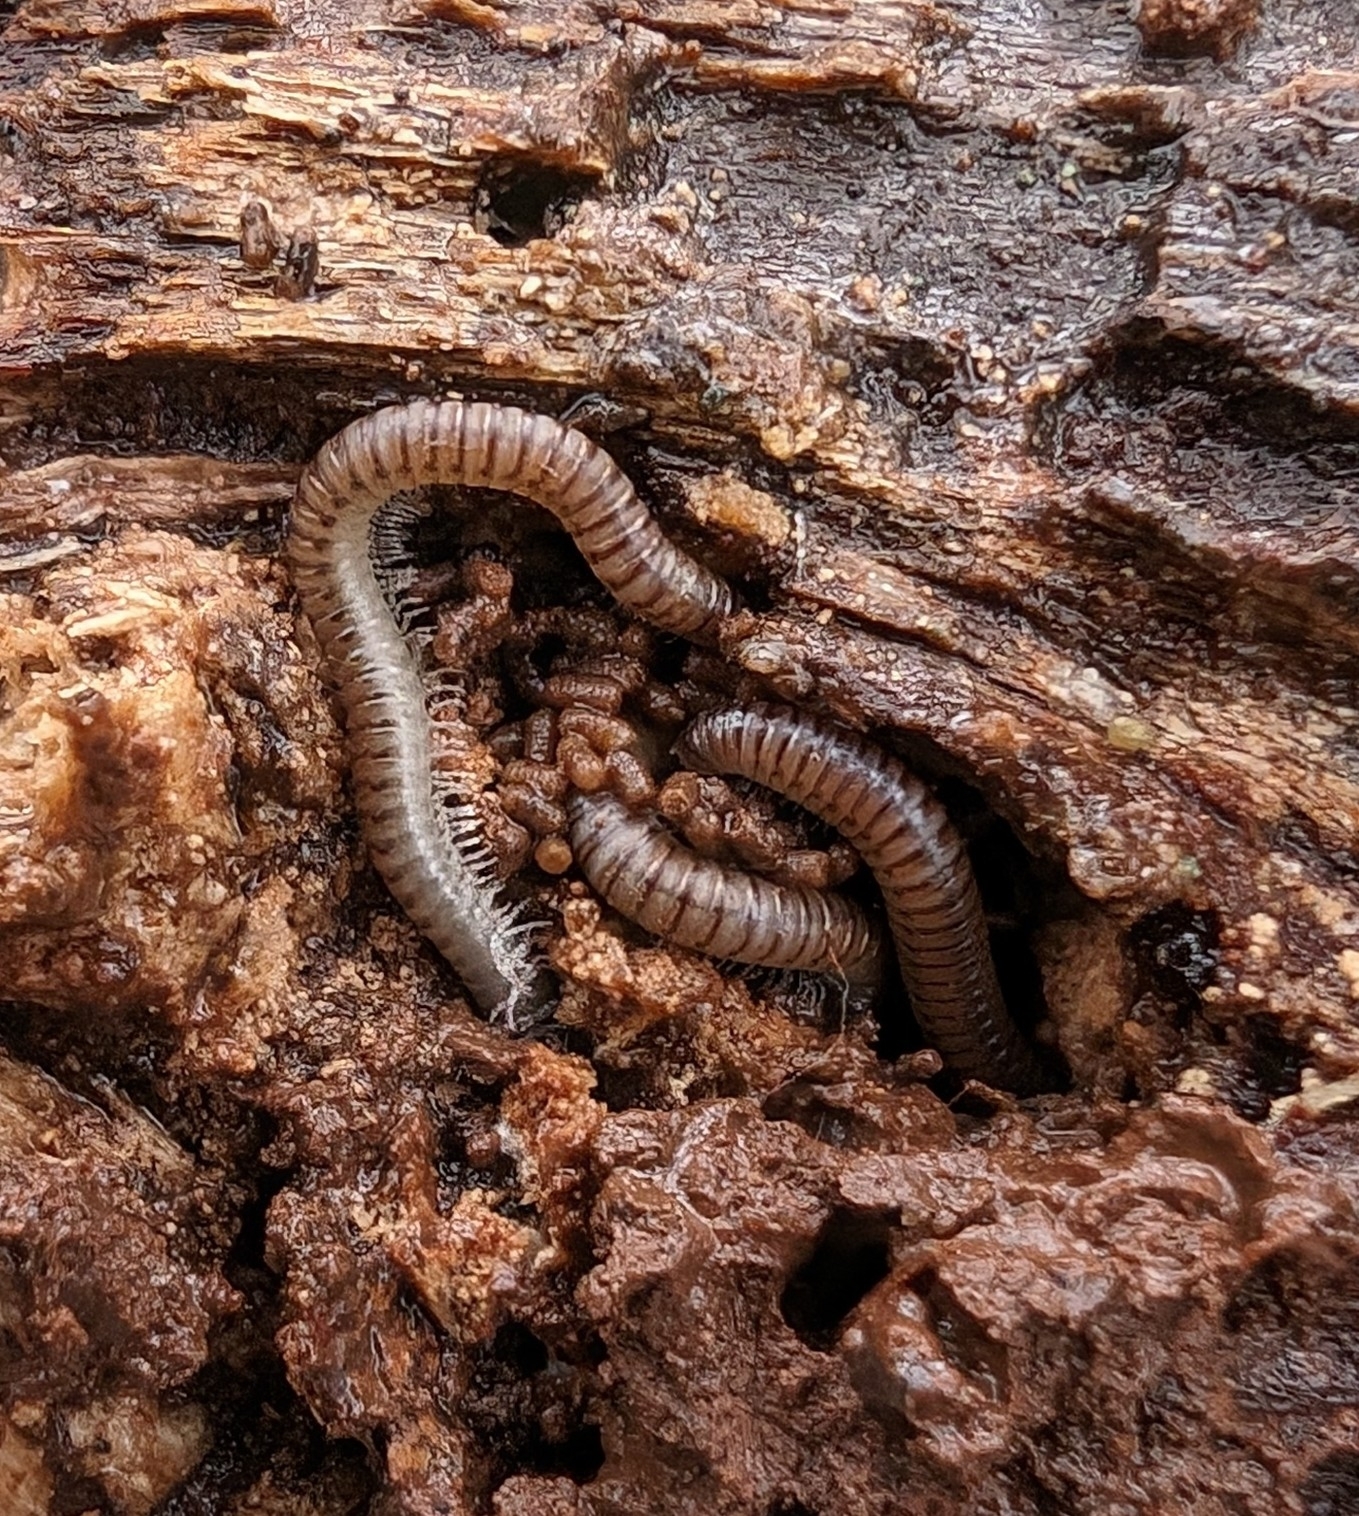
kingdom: Animalia
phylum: Arthropoda
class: Diplopoda
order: Julida
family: Julidae
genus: Cylindroiulus
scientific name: Cylindroiulus punctatus
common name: Blunt-tailed millipede
